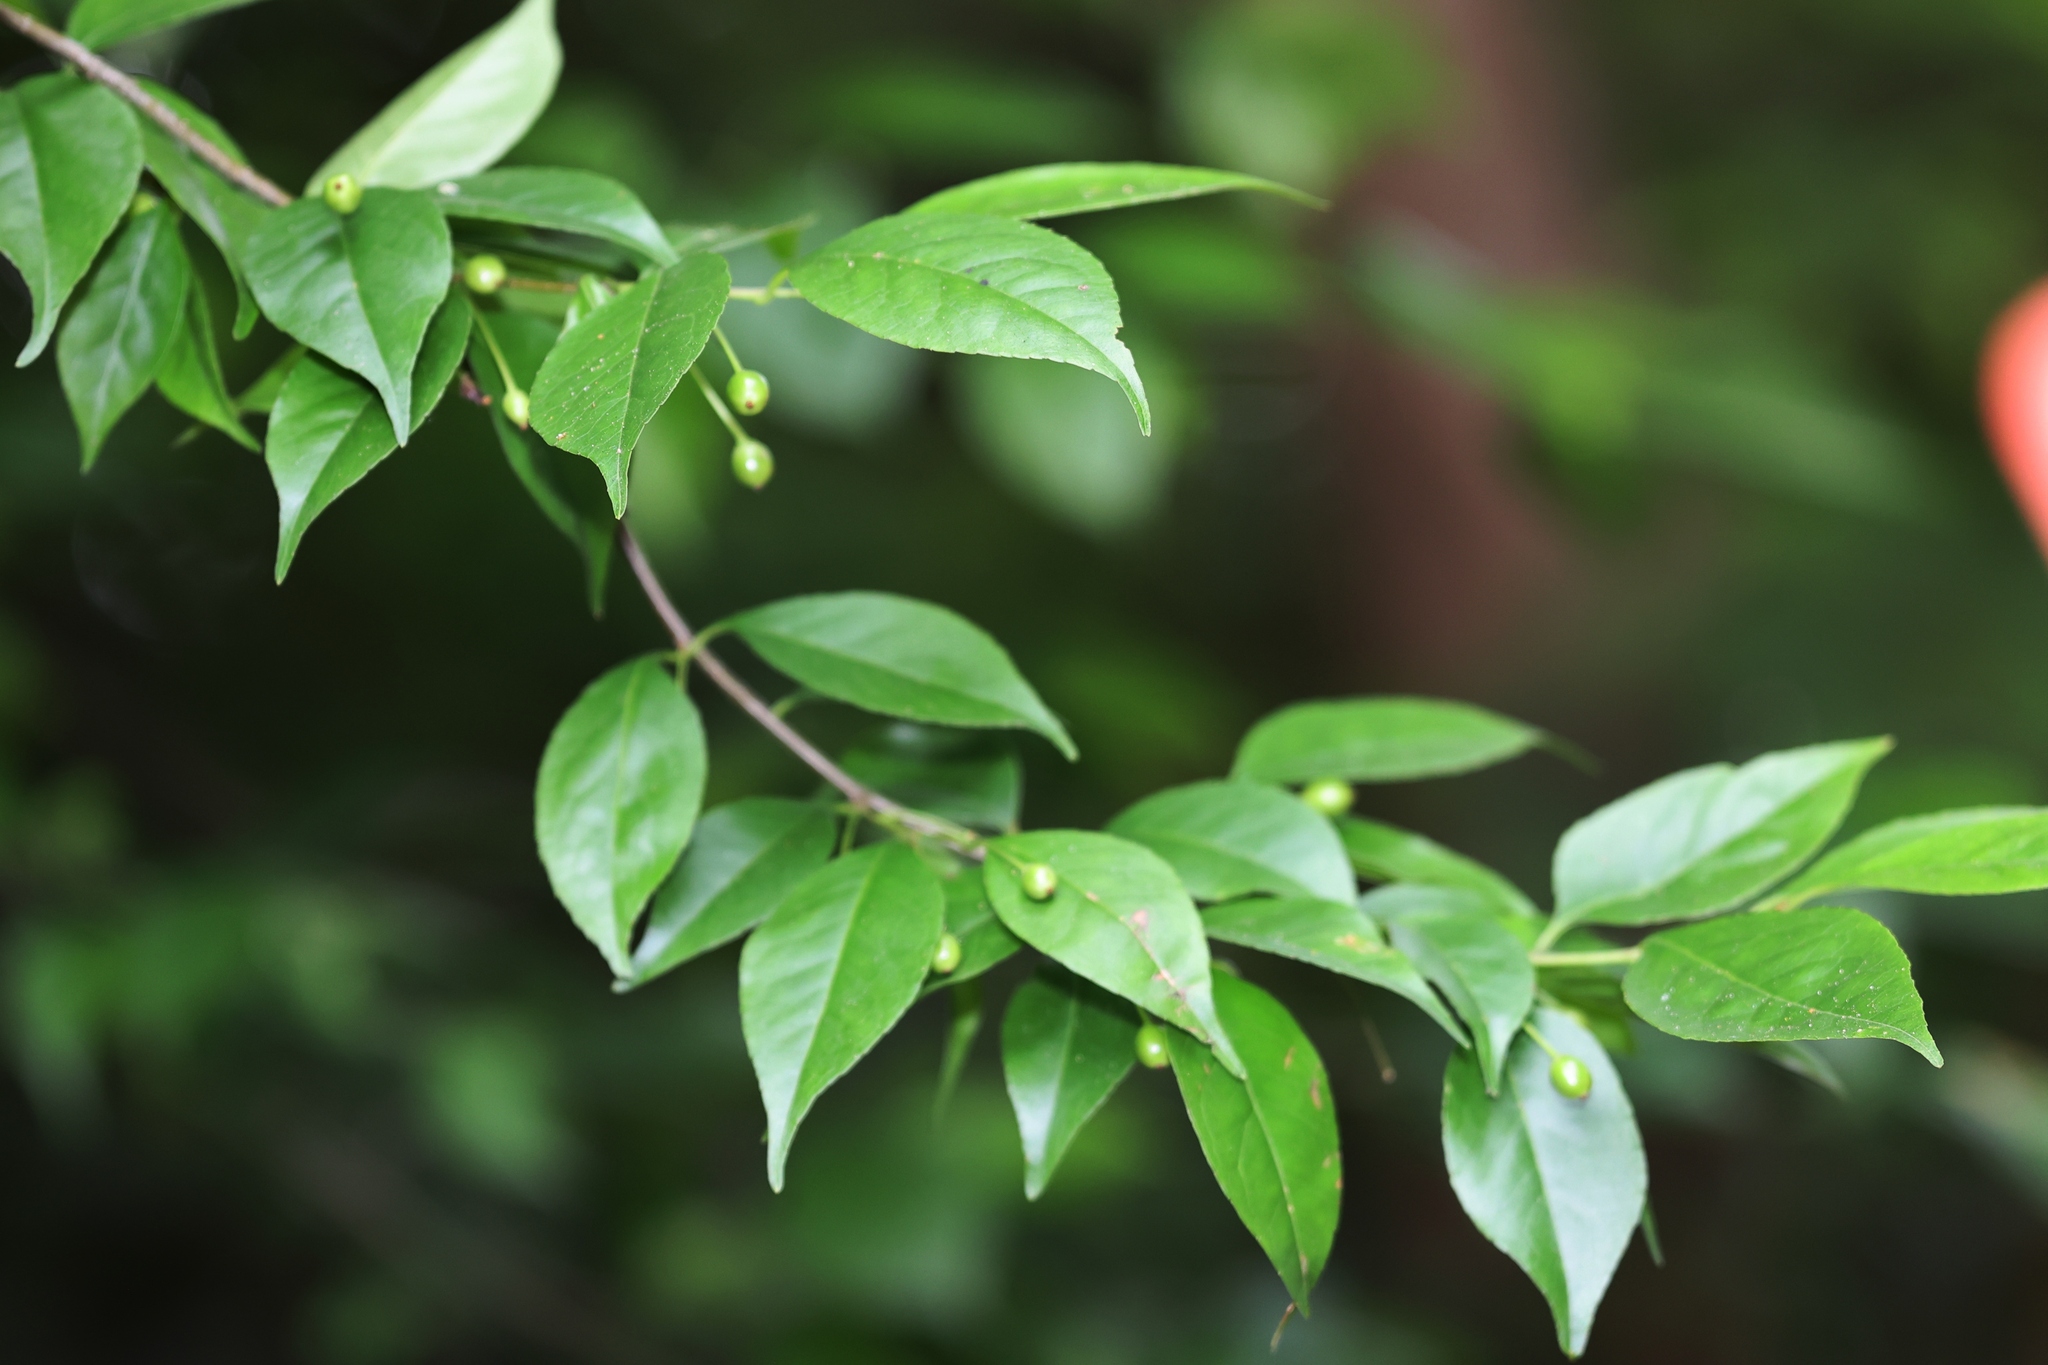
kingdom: Plantae
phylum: Tracheophyta
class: Magnoliopsida
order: Aquifoliales
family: Aquifoliaceae
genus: Ilex
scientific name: Ilex asprella
